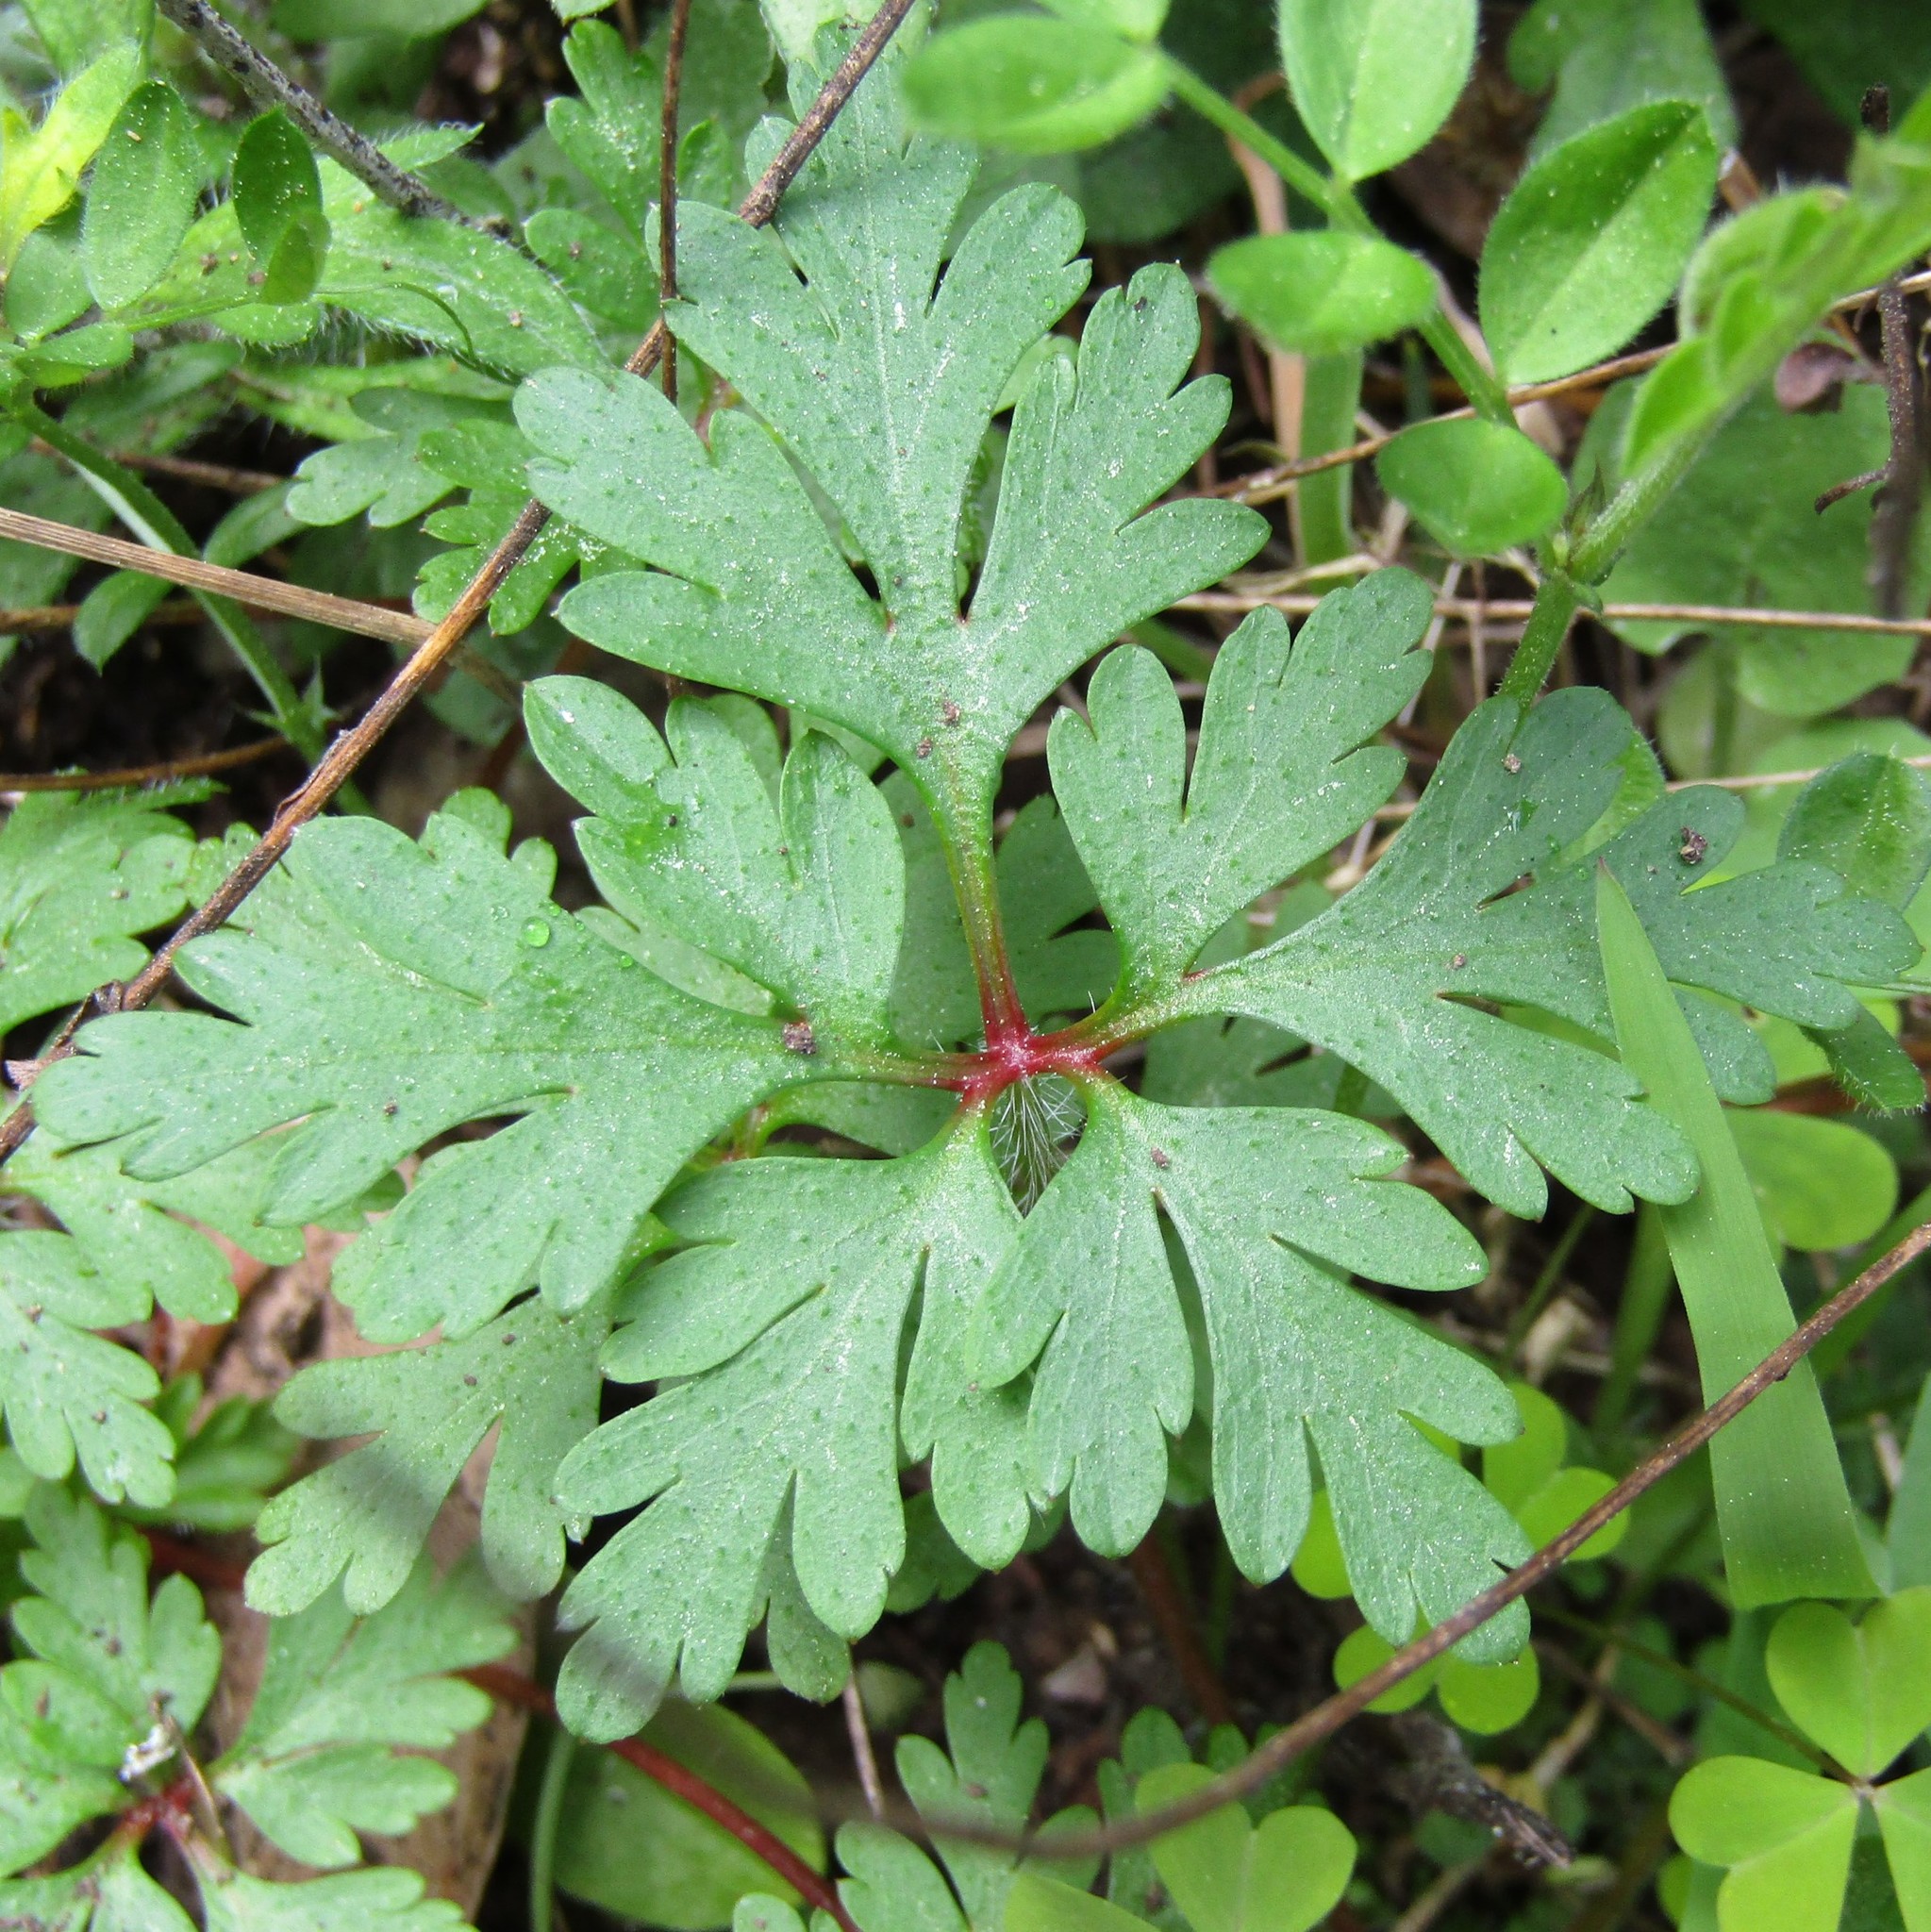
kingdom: Plantae
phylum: Tracheophyta
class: Magnoliopsida
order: Geraniales
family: Geraniaceae
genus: Geranium
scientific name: Geranium purpureum
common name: Little-robin
